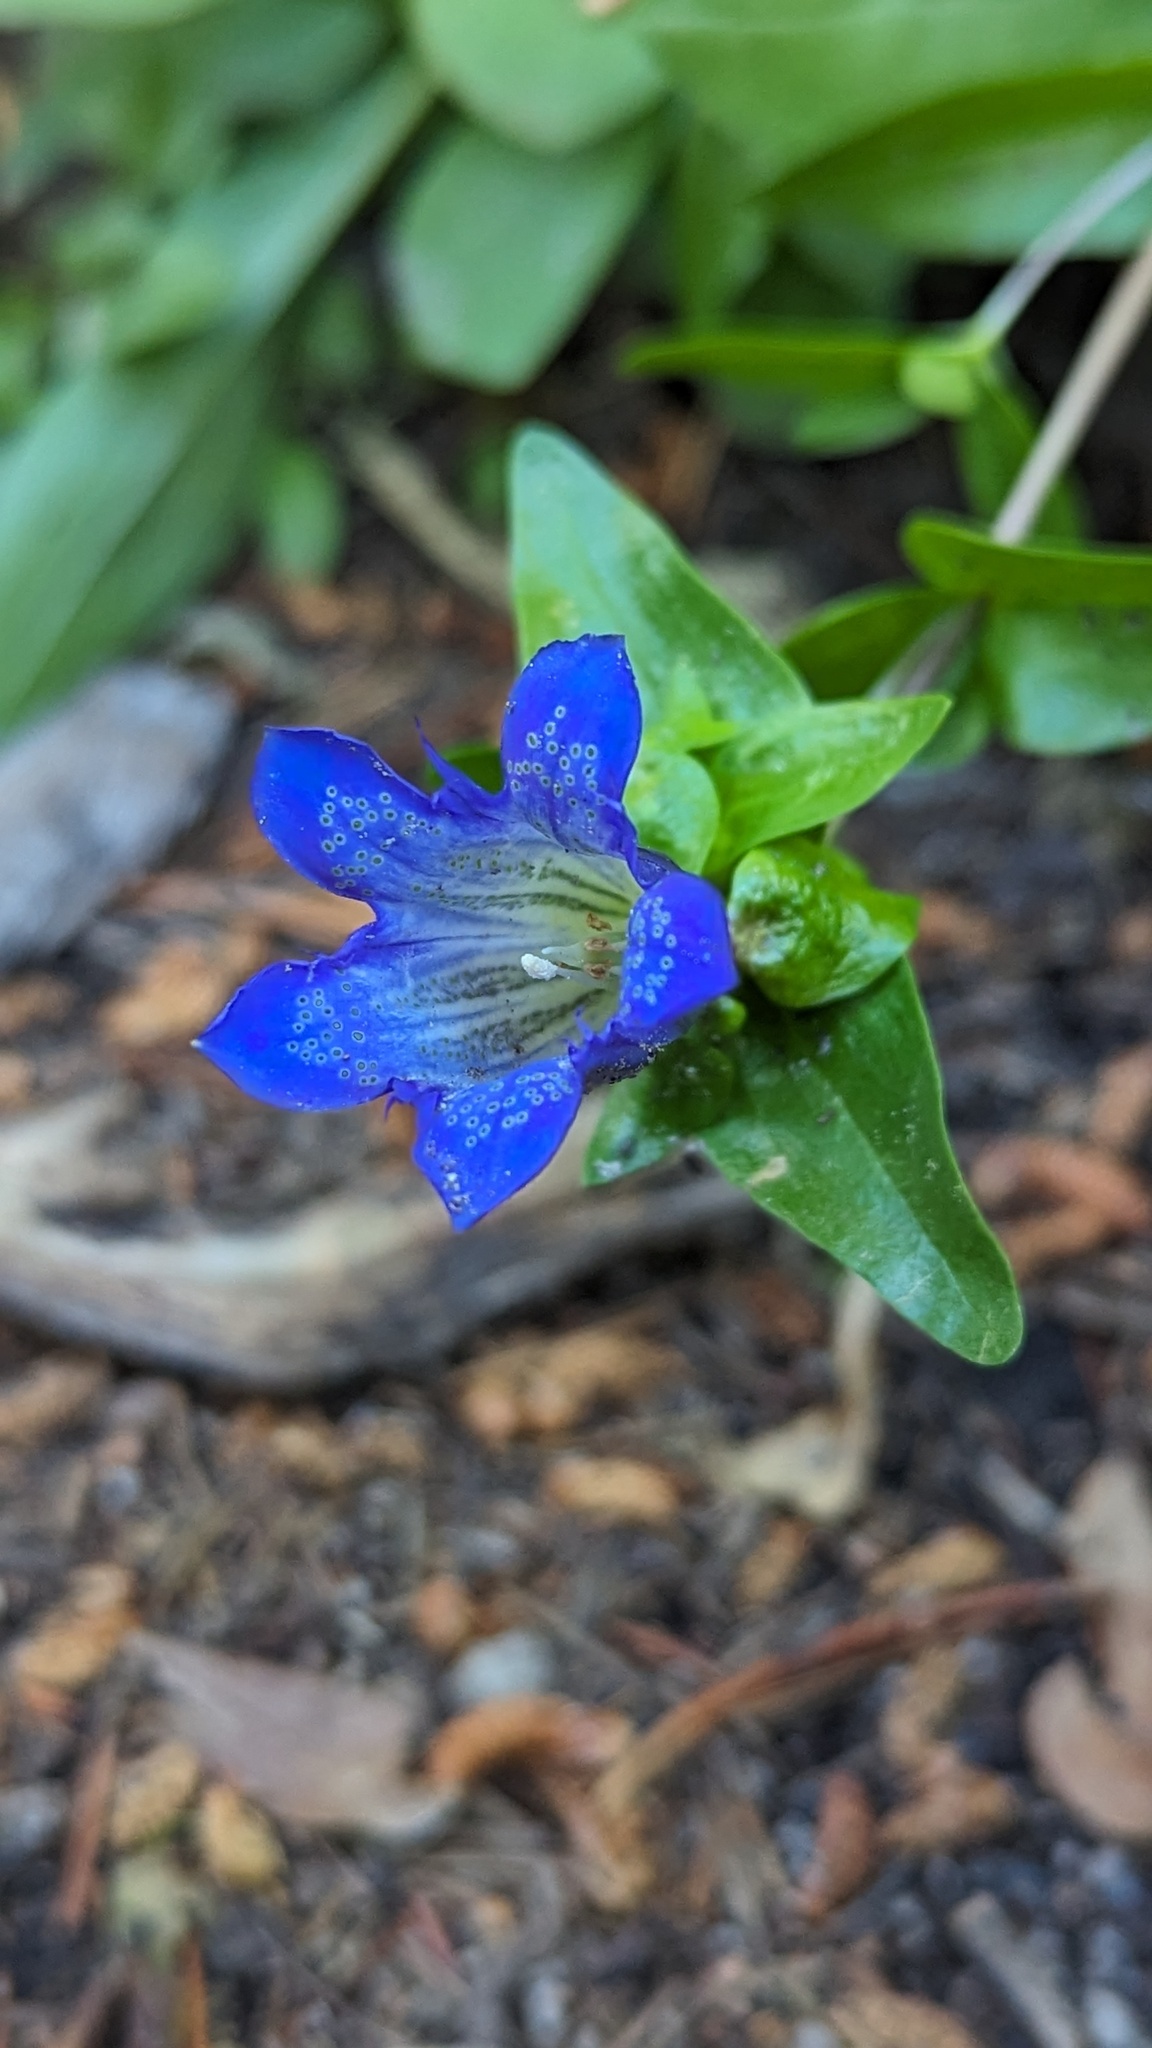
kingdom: Plantae
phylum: Tracheophyta
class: Magnoliopsida
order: Gentianales
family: Gentianaceae
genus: Gentiana
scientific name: Gentiana calycosa
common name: Rainier pleated gentian
